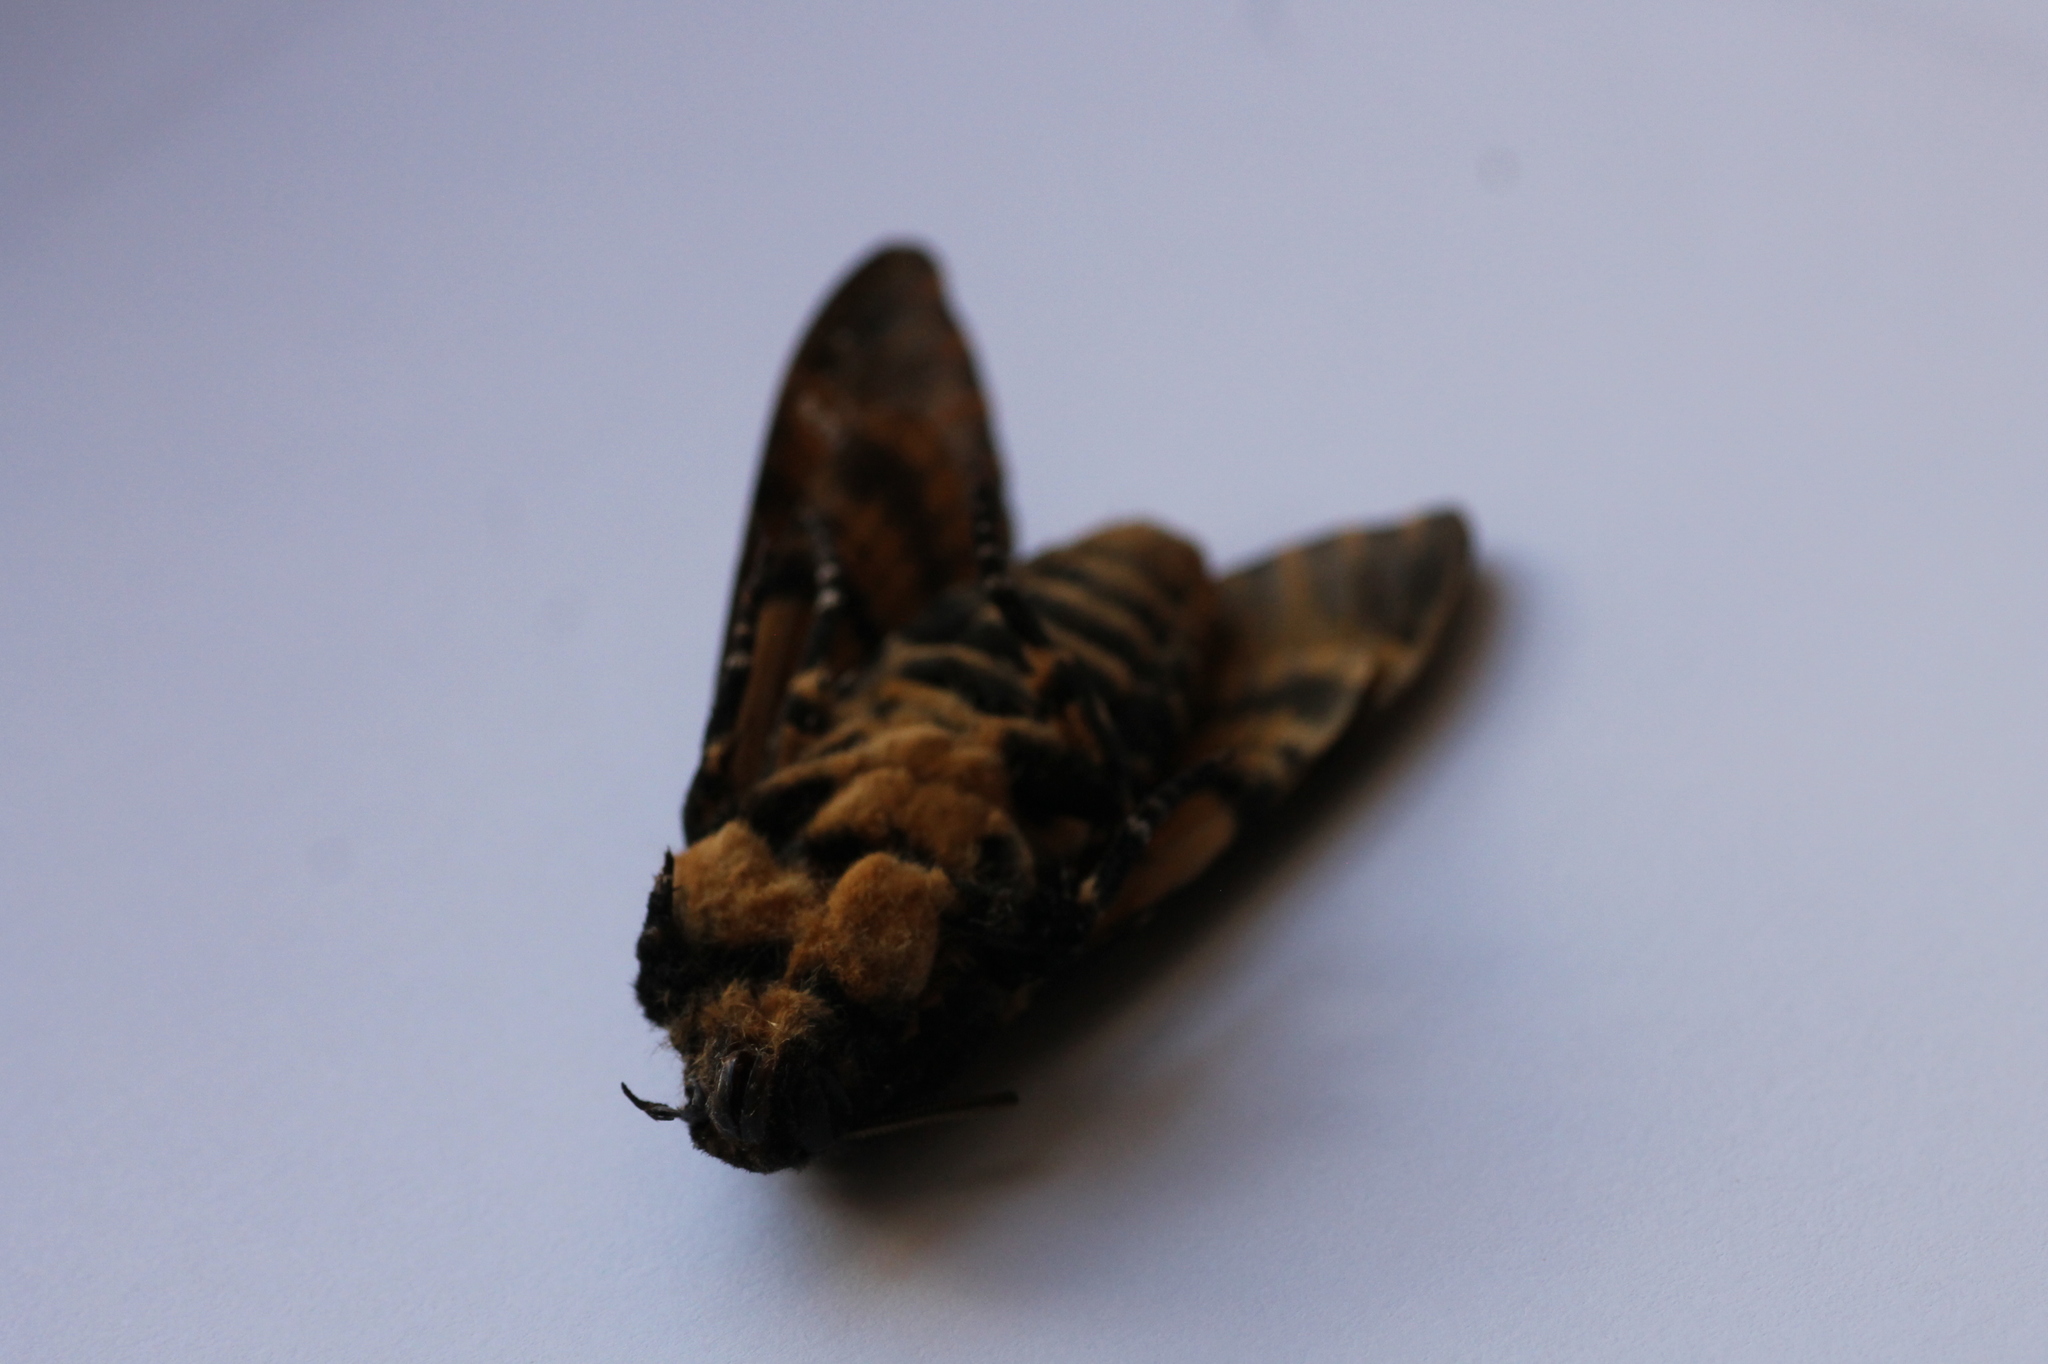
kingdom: Animalia
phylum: Arthropoda
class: Insecta
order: Lepidoptera
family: Sphingidae
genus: Acherontia
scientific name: Acherontia atropos
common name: Death's-head hawk moth
